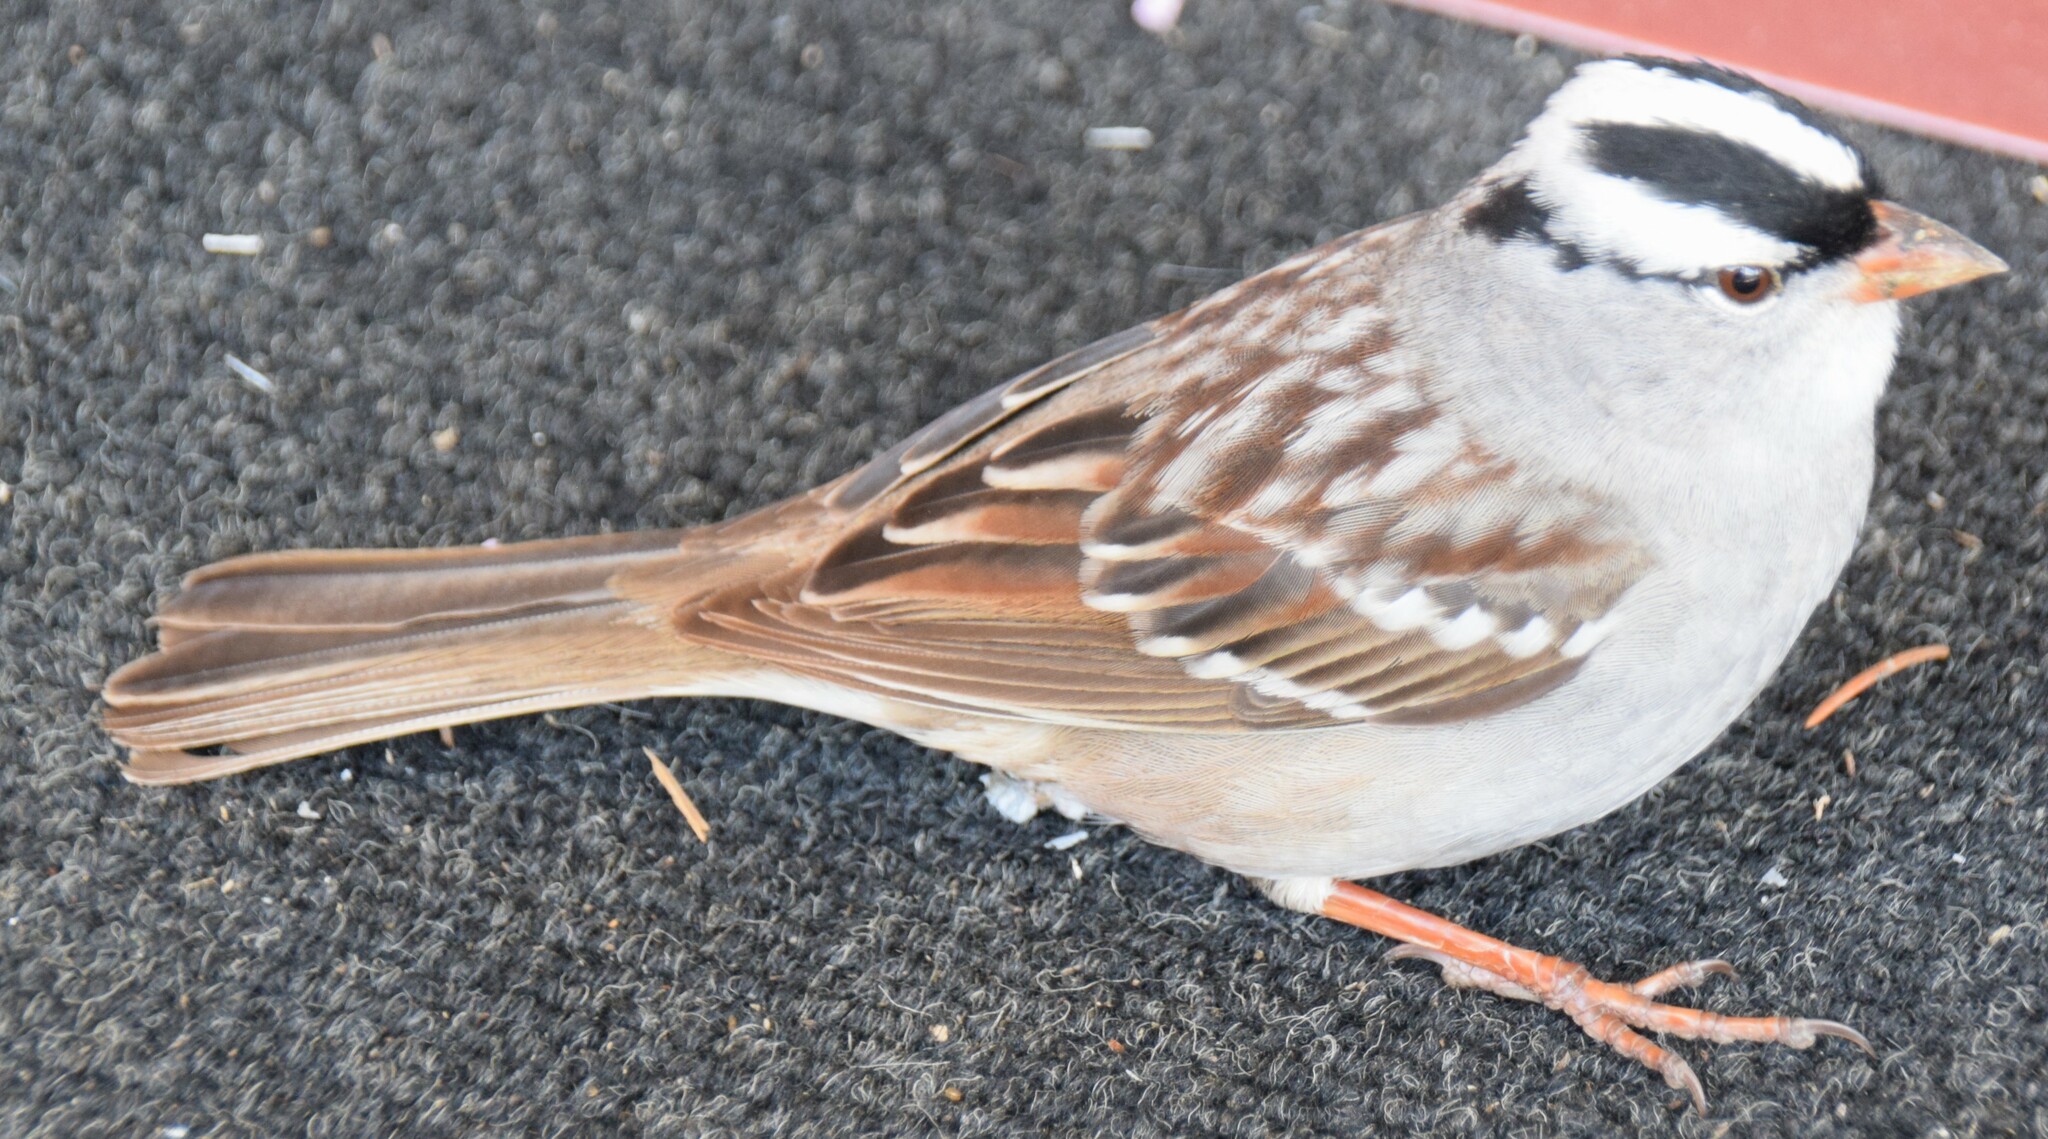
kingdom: Animalia
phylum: Chordata
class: Aves
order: Passeriformes
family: Passerellidae
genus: Zonotrichia
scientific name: Zonotrichia leucophrys
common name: White-crowned sparrow
